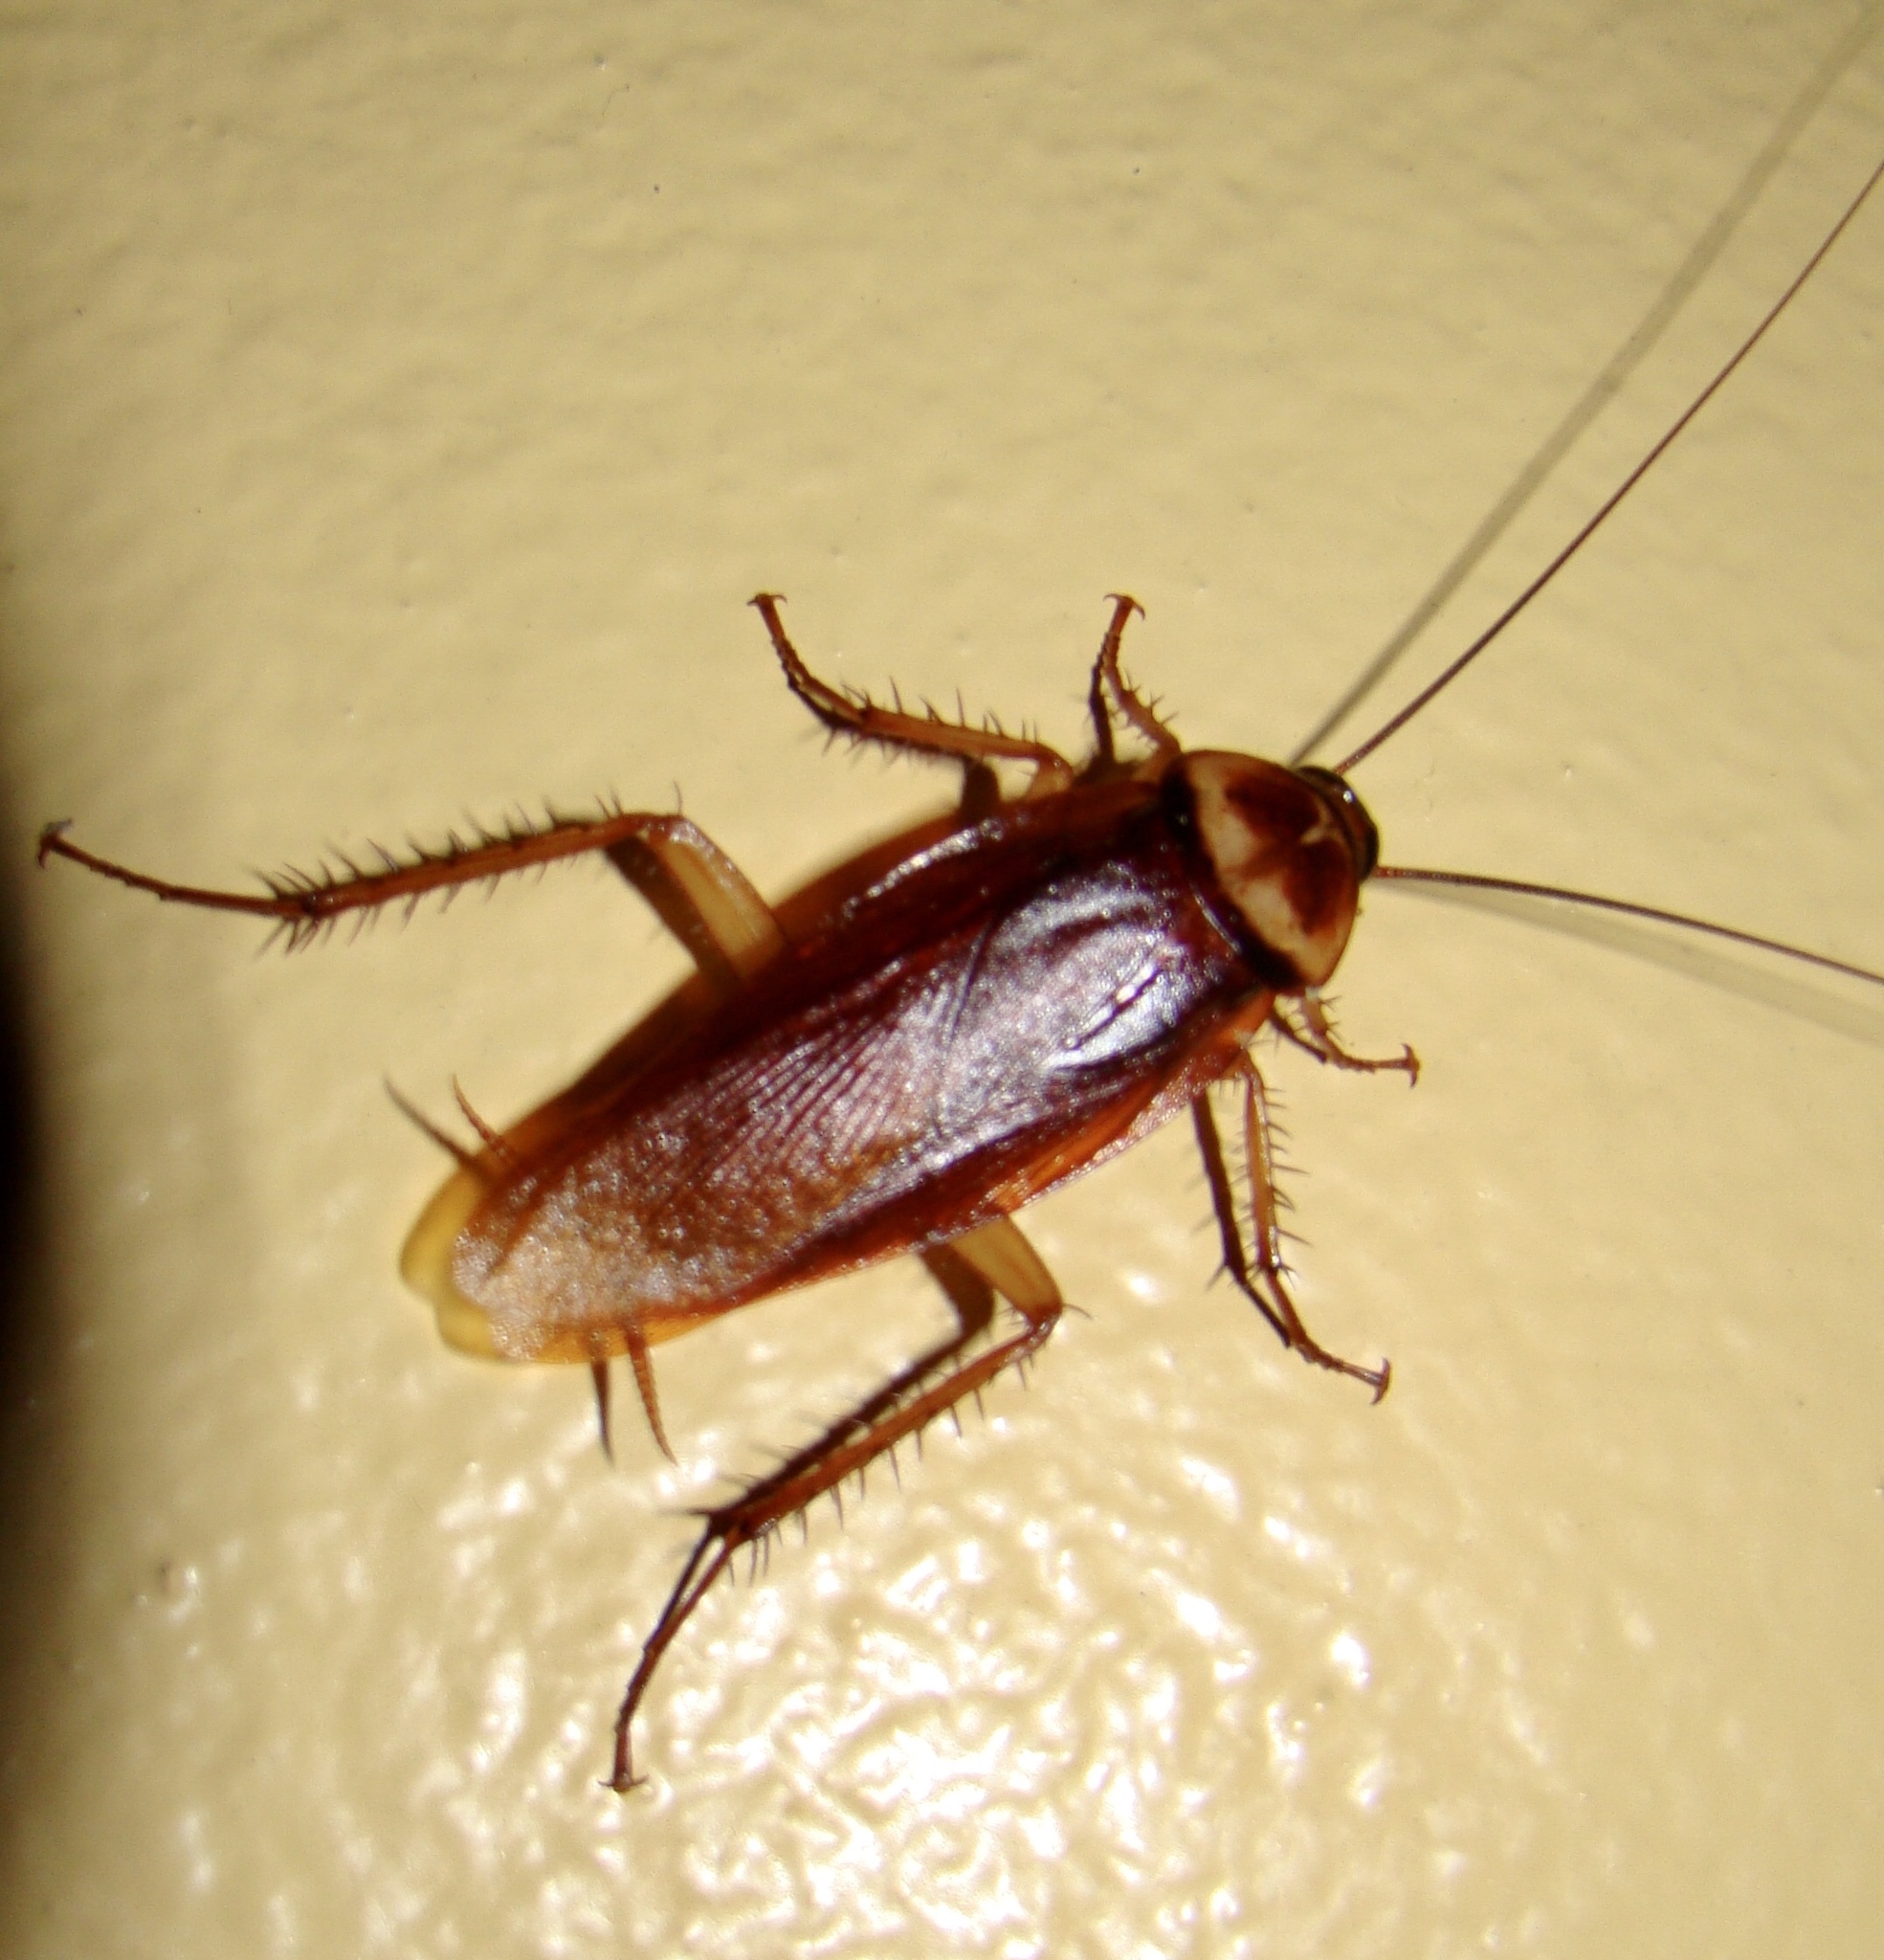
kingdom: Animalia
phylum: Arthropoda
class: Insecta
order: Blattodea
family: Blattidae
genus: Periplaneta
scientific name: Periplaneta americana
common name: American cockroach
